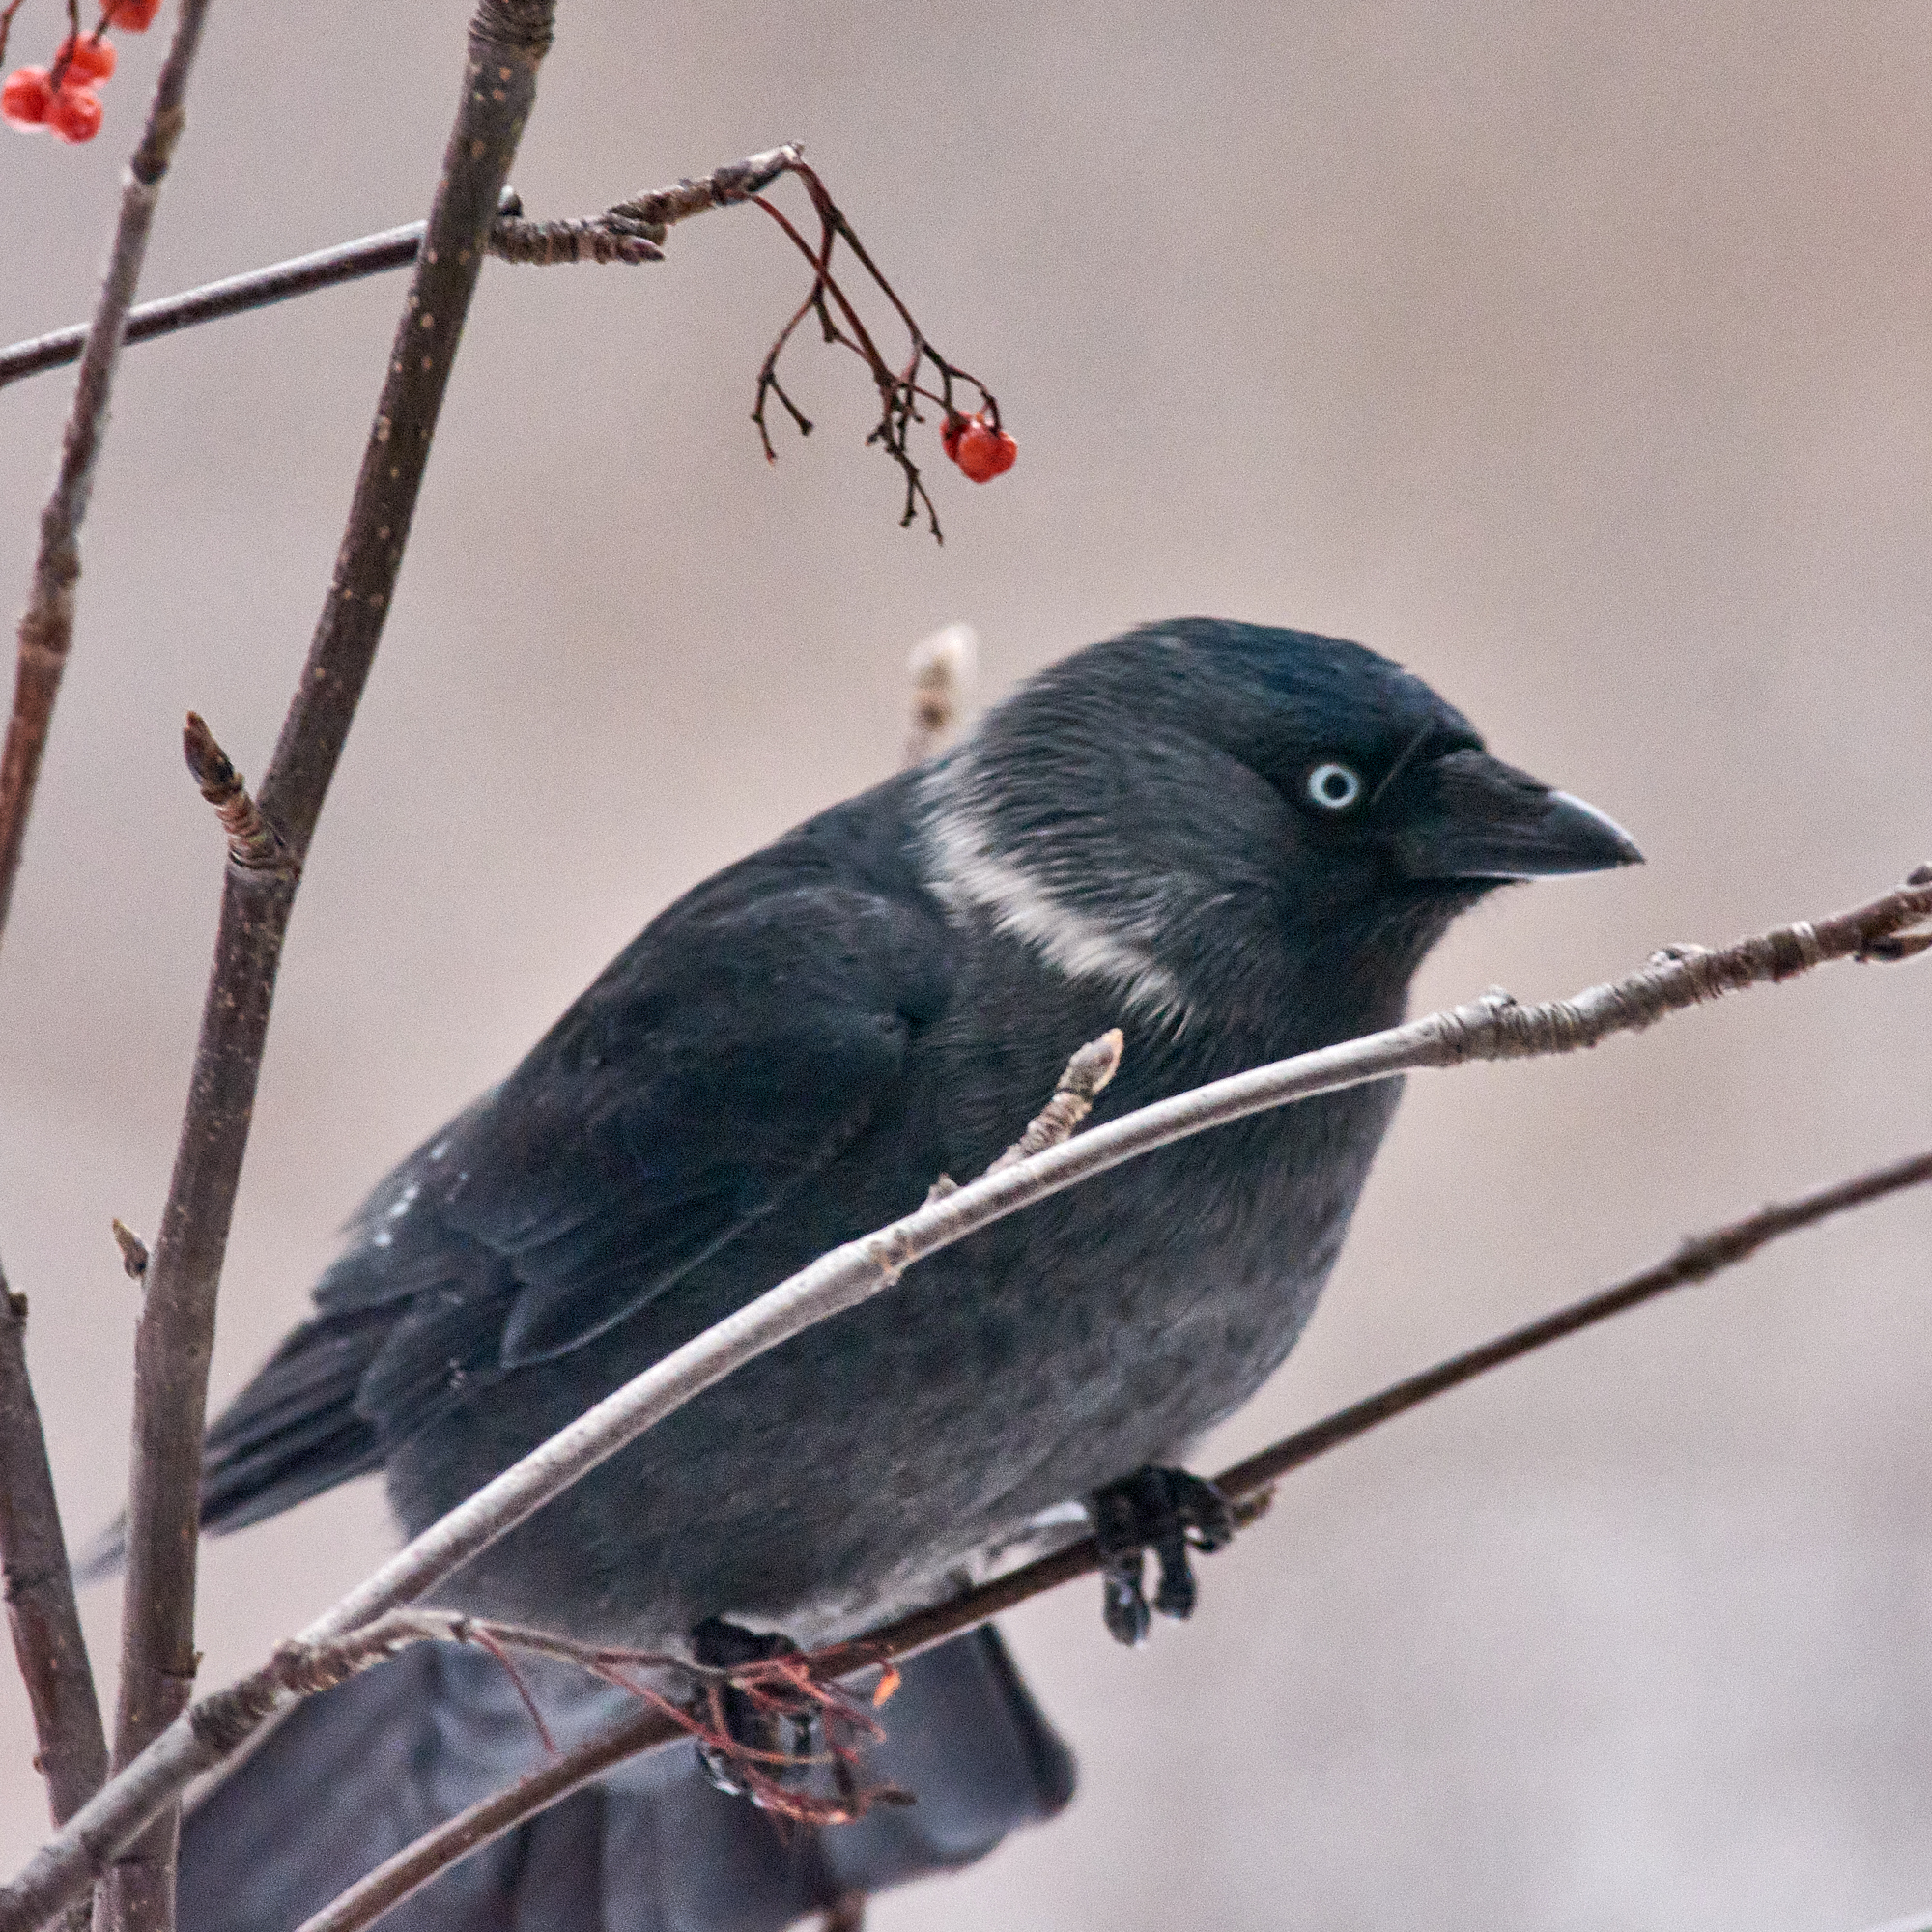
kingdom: Animalia
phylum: Chordata
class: Aves
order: Passeriformes
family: Corvidae
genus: Coloeus
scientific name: Coloeus monedula
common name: Western jackdaw
